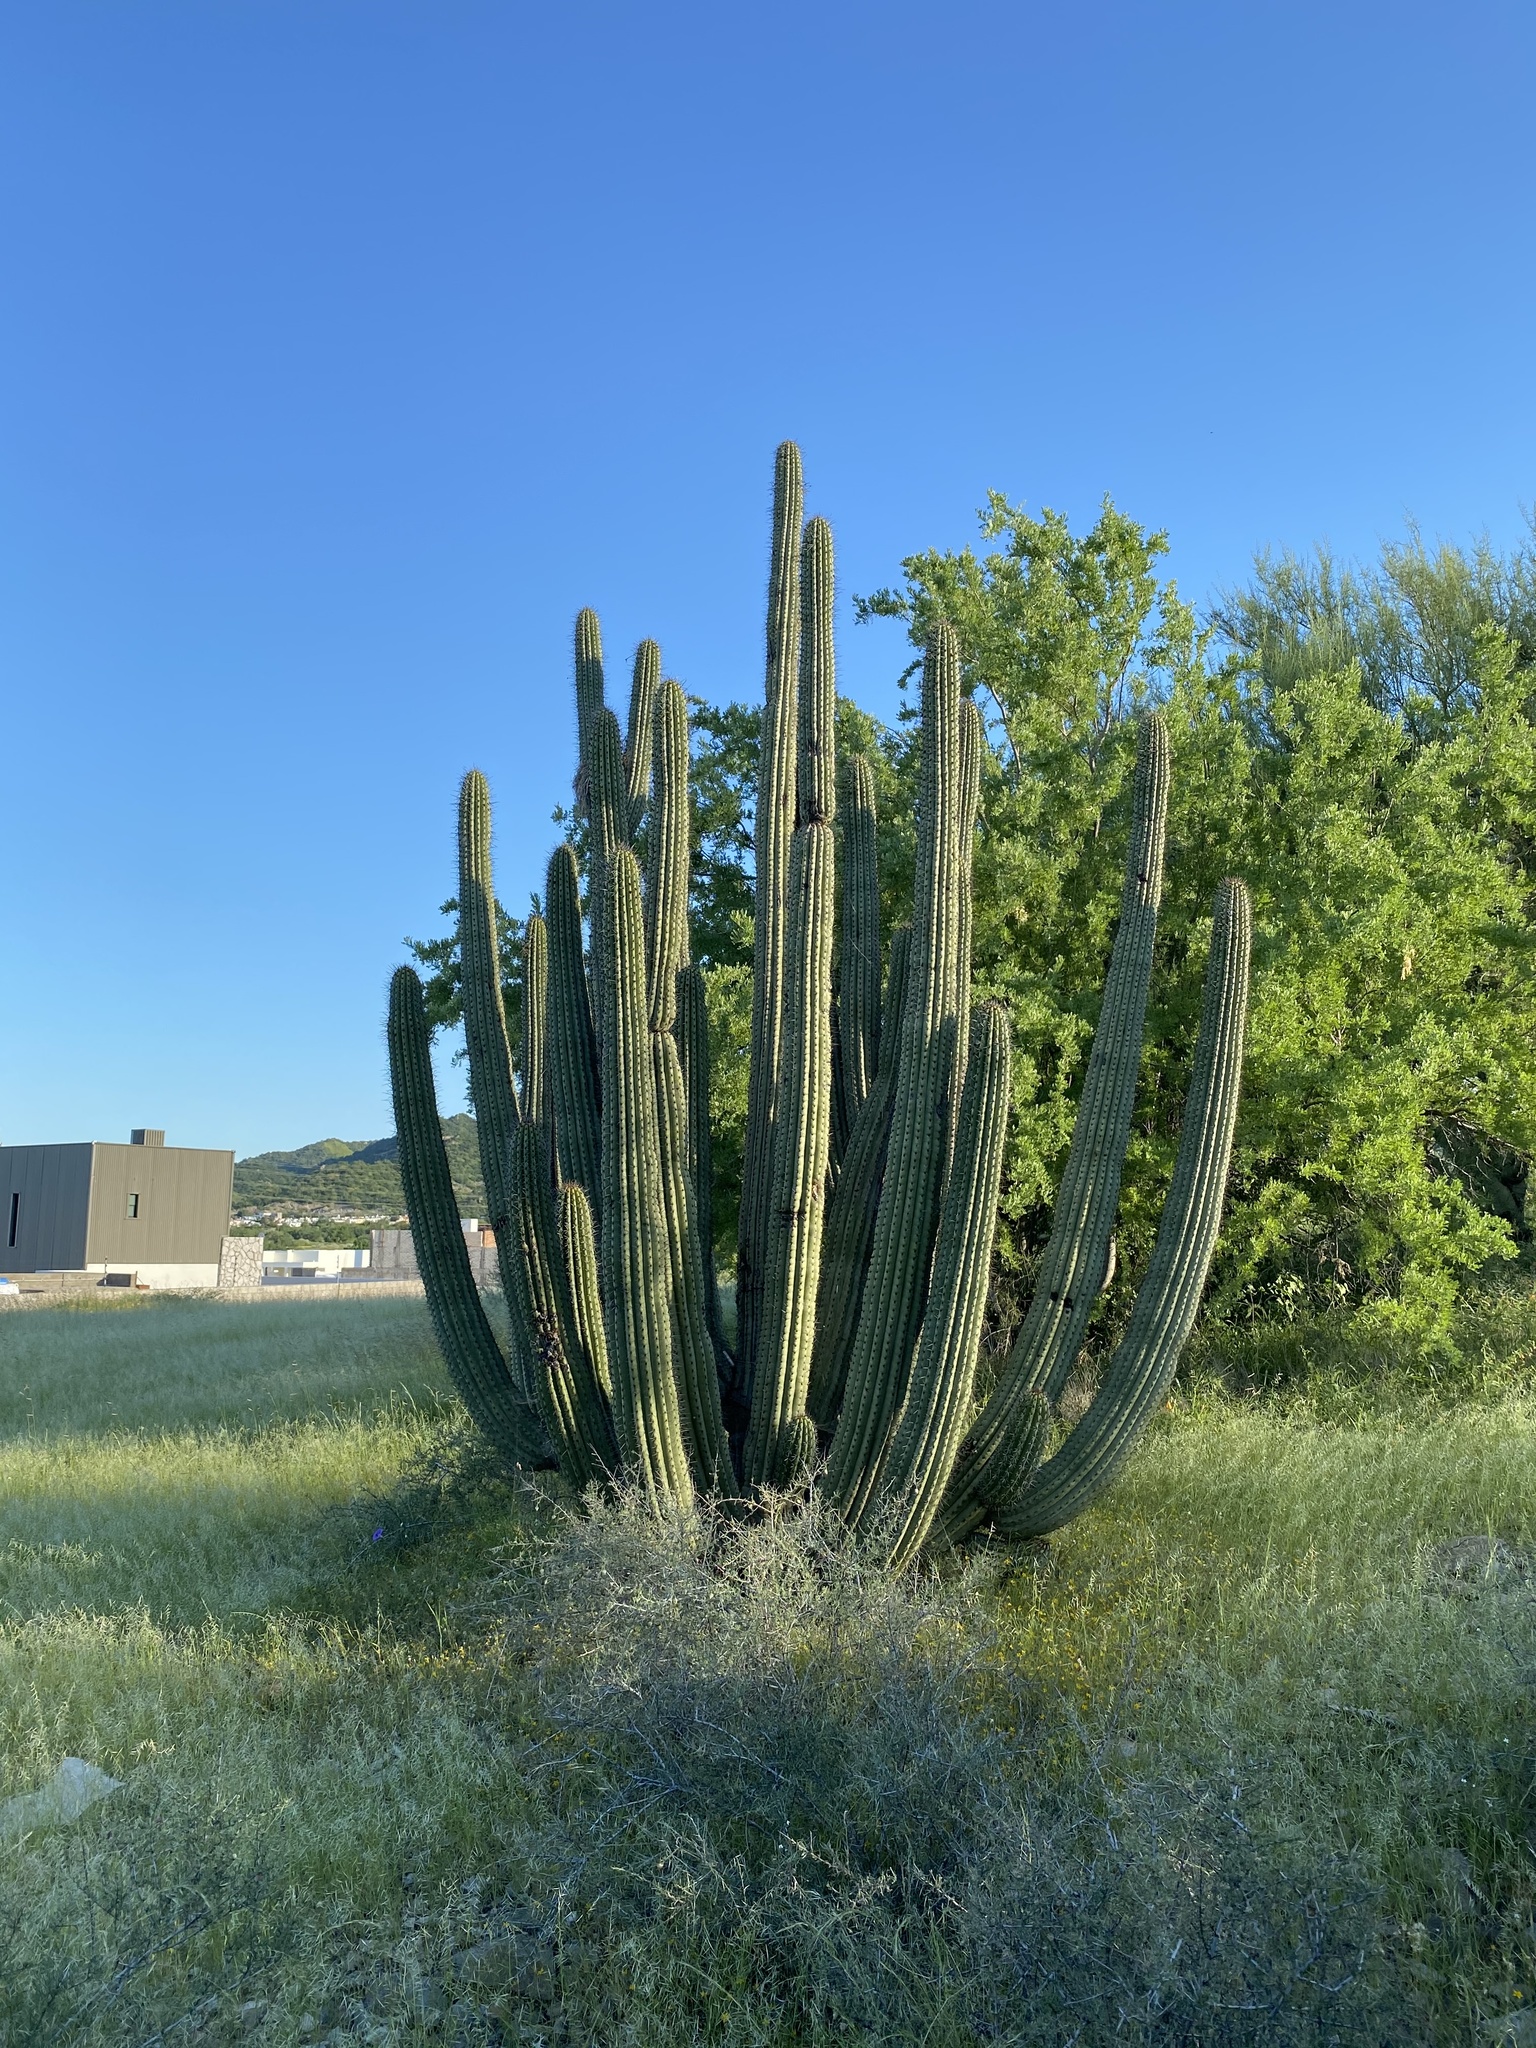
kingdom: Plantae
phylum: Tracheophyta
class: Magnoliopsida
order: Caryophyllales
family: Cactaceae
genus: Stenocereus
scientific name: Stenocereus thurberi
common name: Organ pipe cactus
